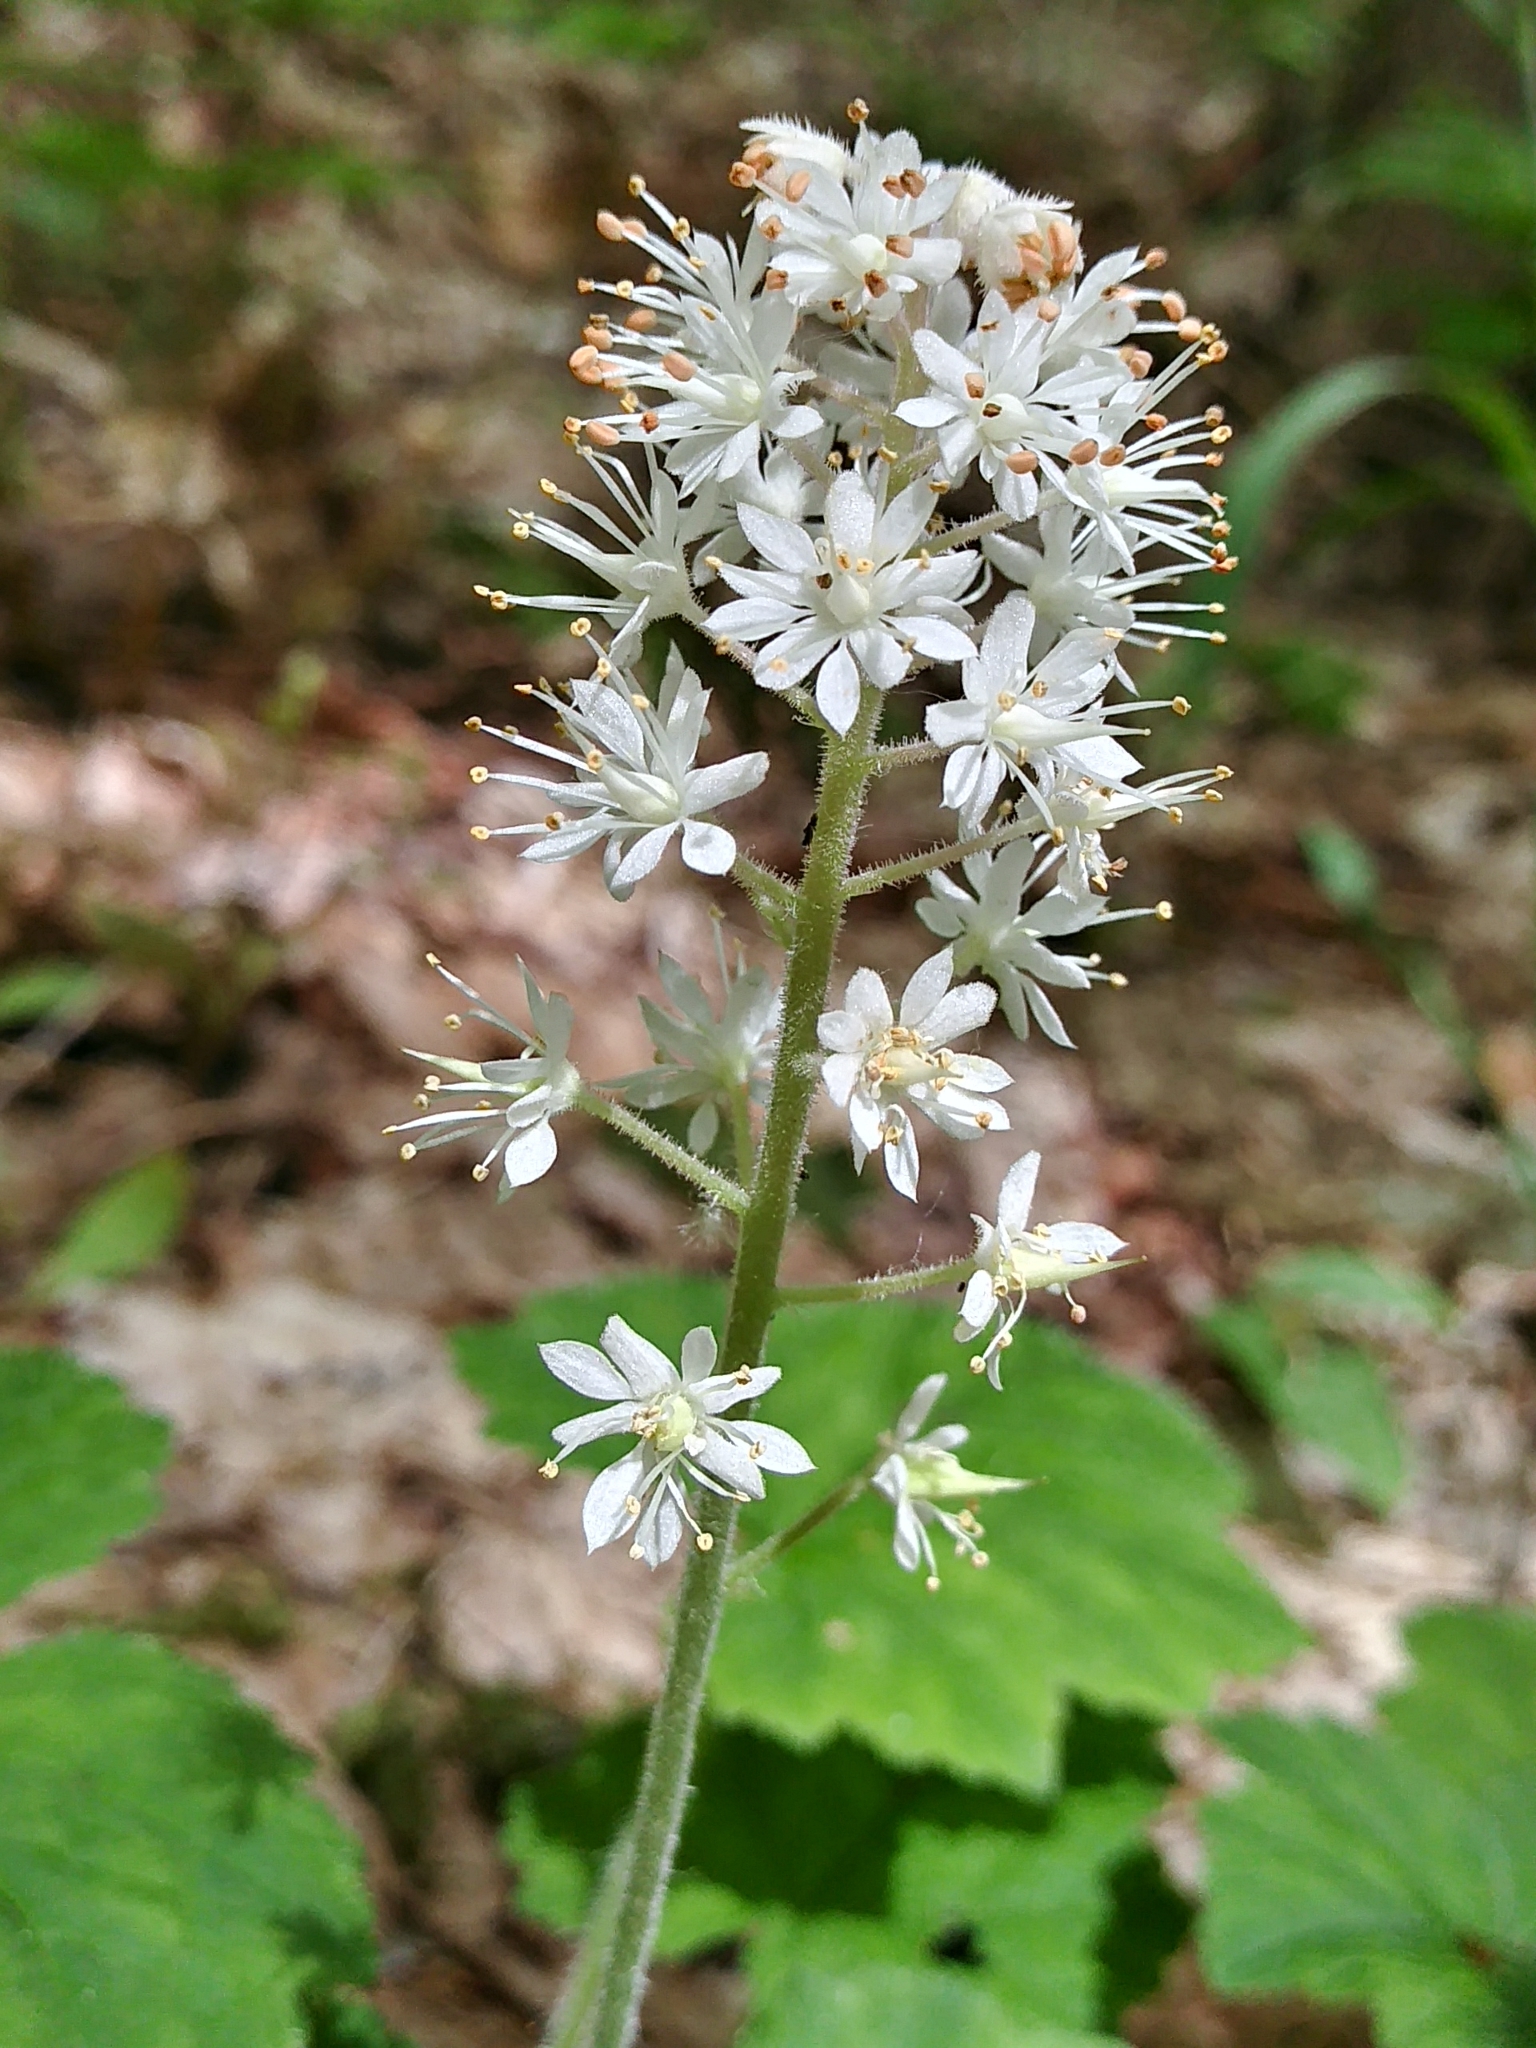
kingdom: Plantae
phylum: Tracheophyta
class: Magnoliopsida
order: Saxifragales
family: Saxifragaceae
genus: Tiarella
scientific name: Tiarella stolonifera
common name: Stoloniferous foamflower
